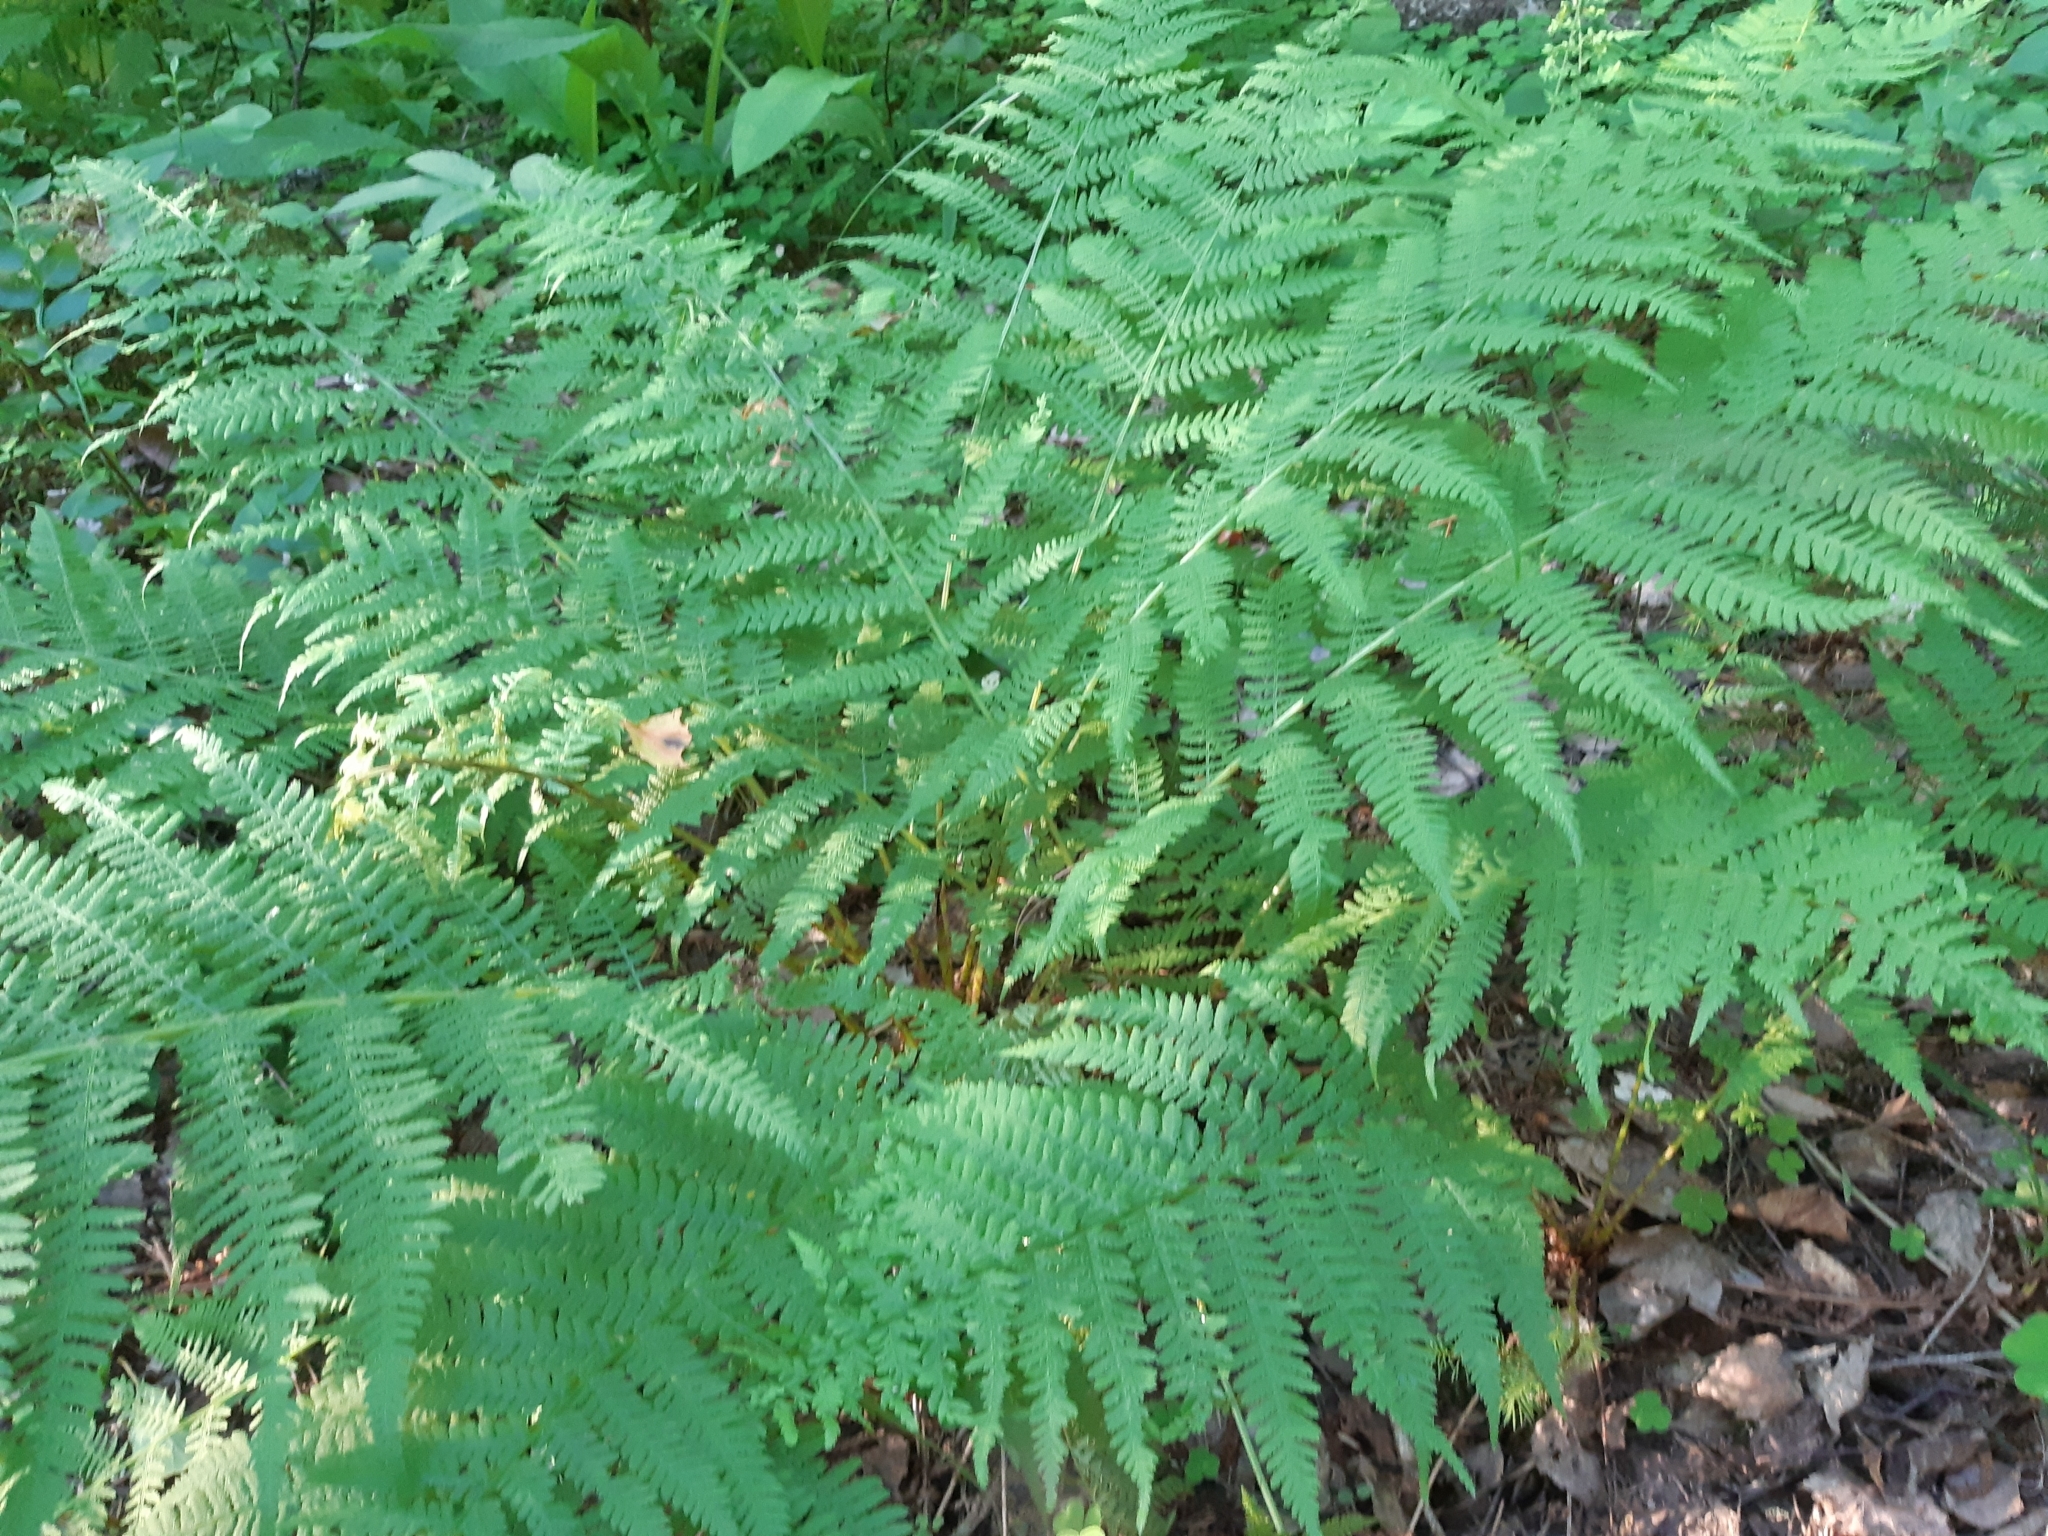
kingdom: Plantae
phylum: Tracheophyta
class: Polypodiopsida
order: Polypodiales
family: Athyriaceae
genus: Athyrium
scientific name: Athyrium filix-femina
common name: Lady fern
